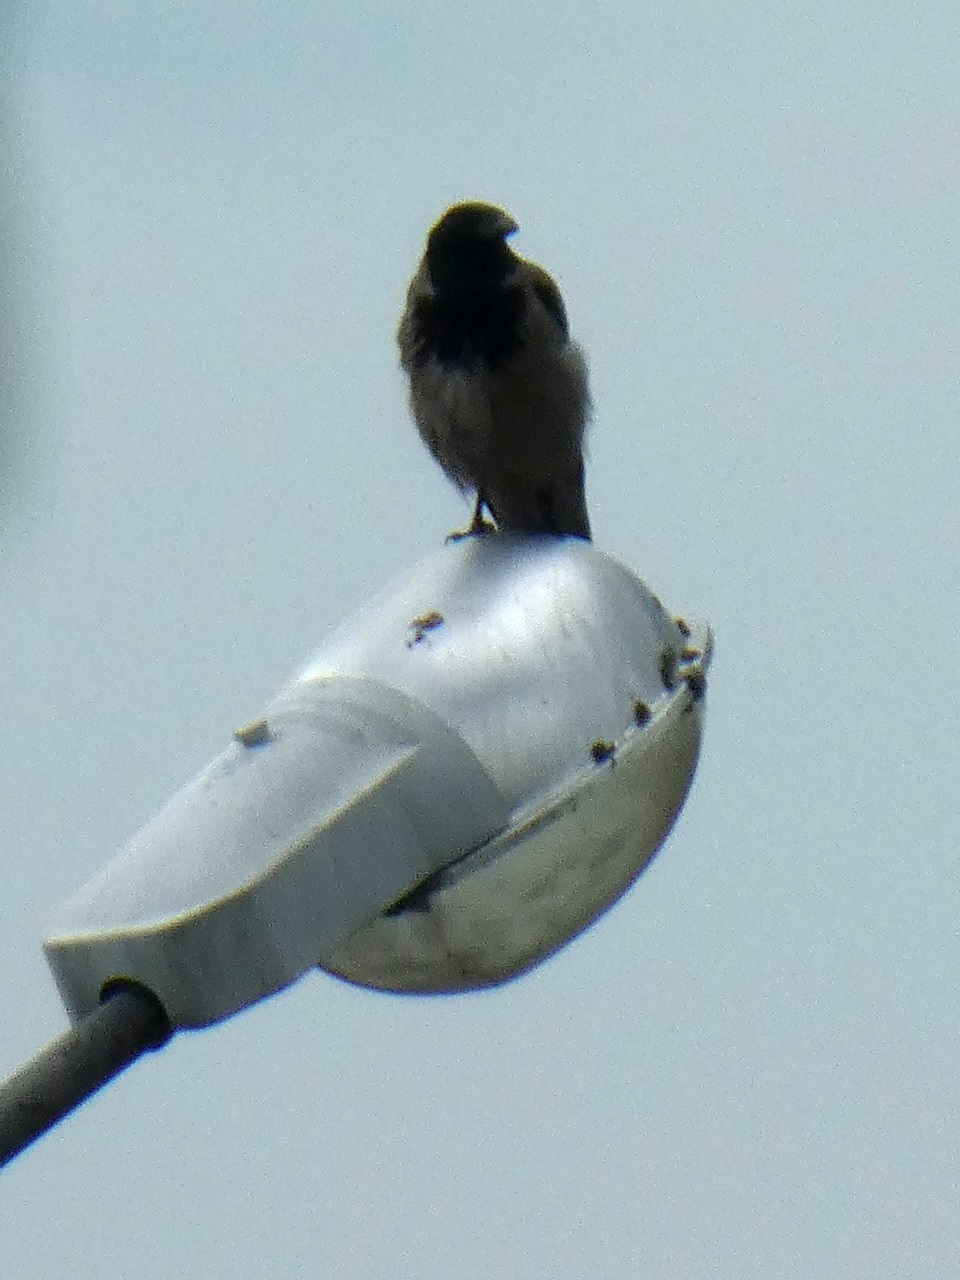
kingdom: Animalia
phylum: Chordata
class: Aves
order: Passeriformes
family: Corvidae
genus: Corvus
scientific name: Corvus cornix
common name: Hooded crow
